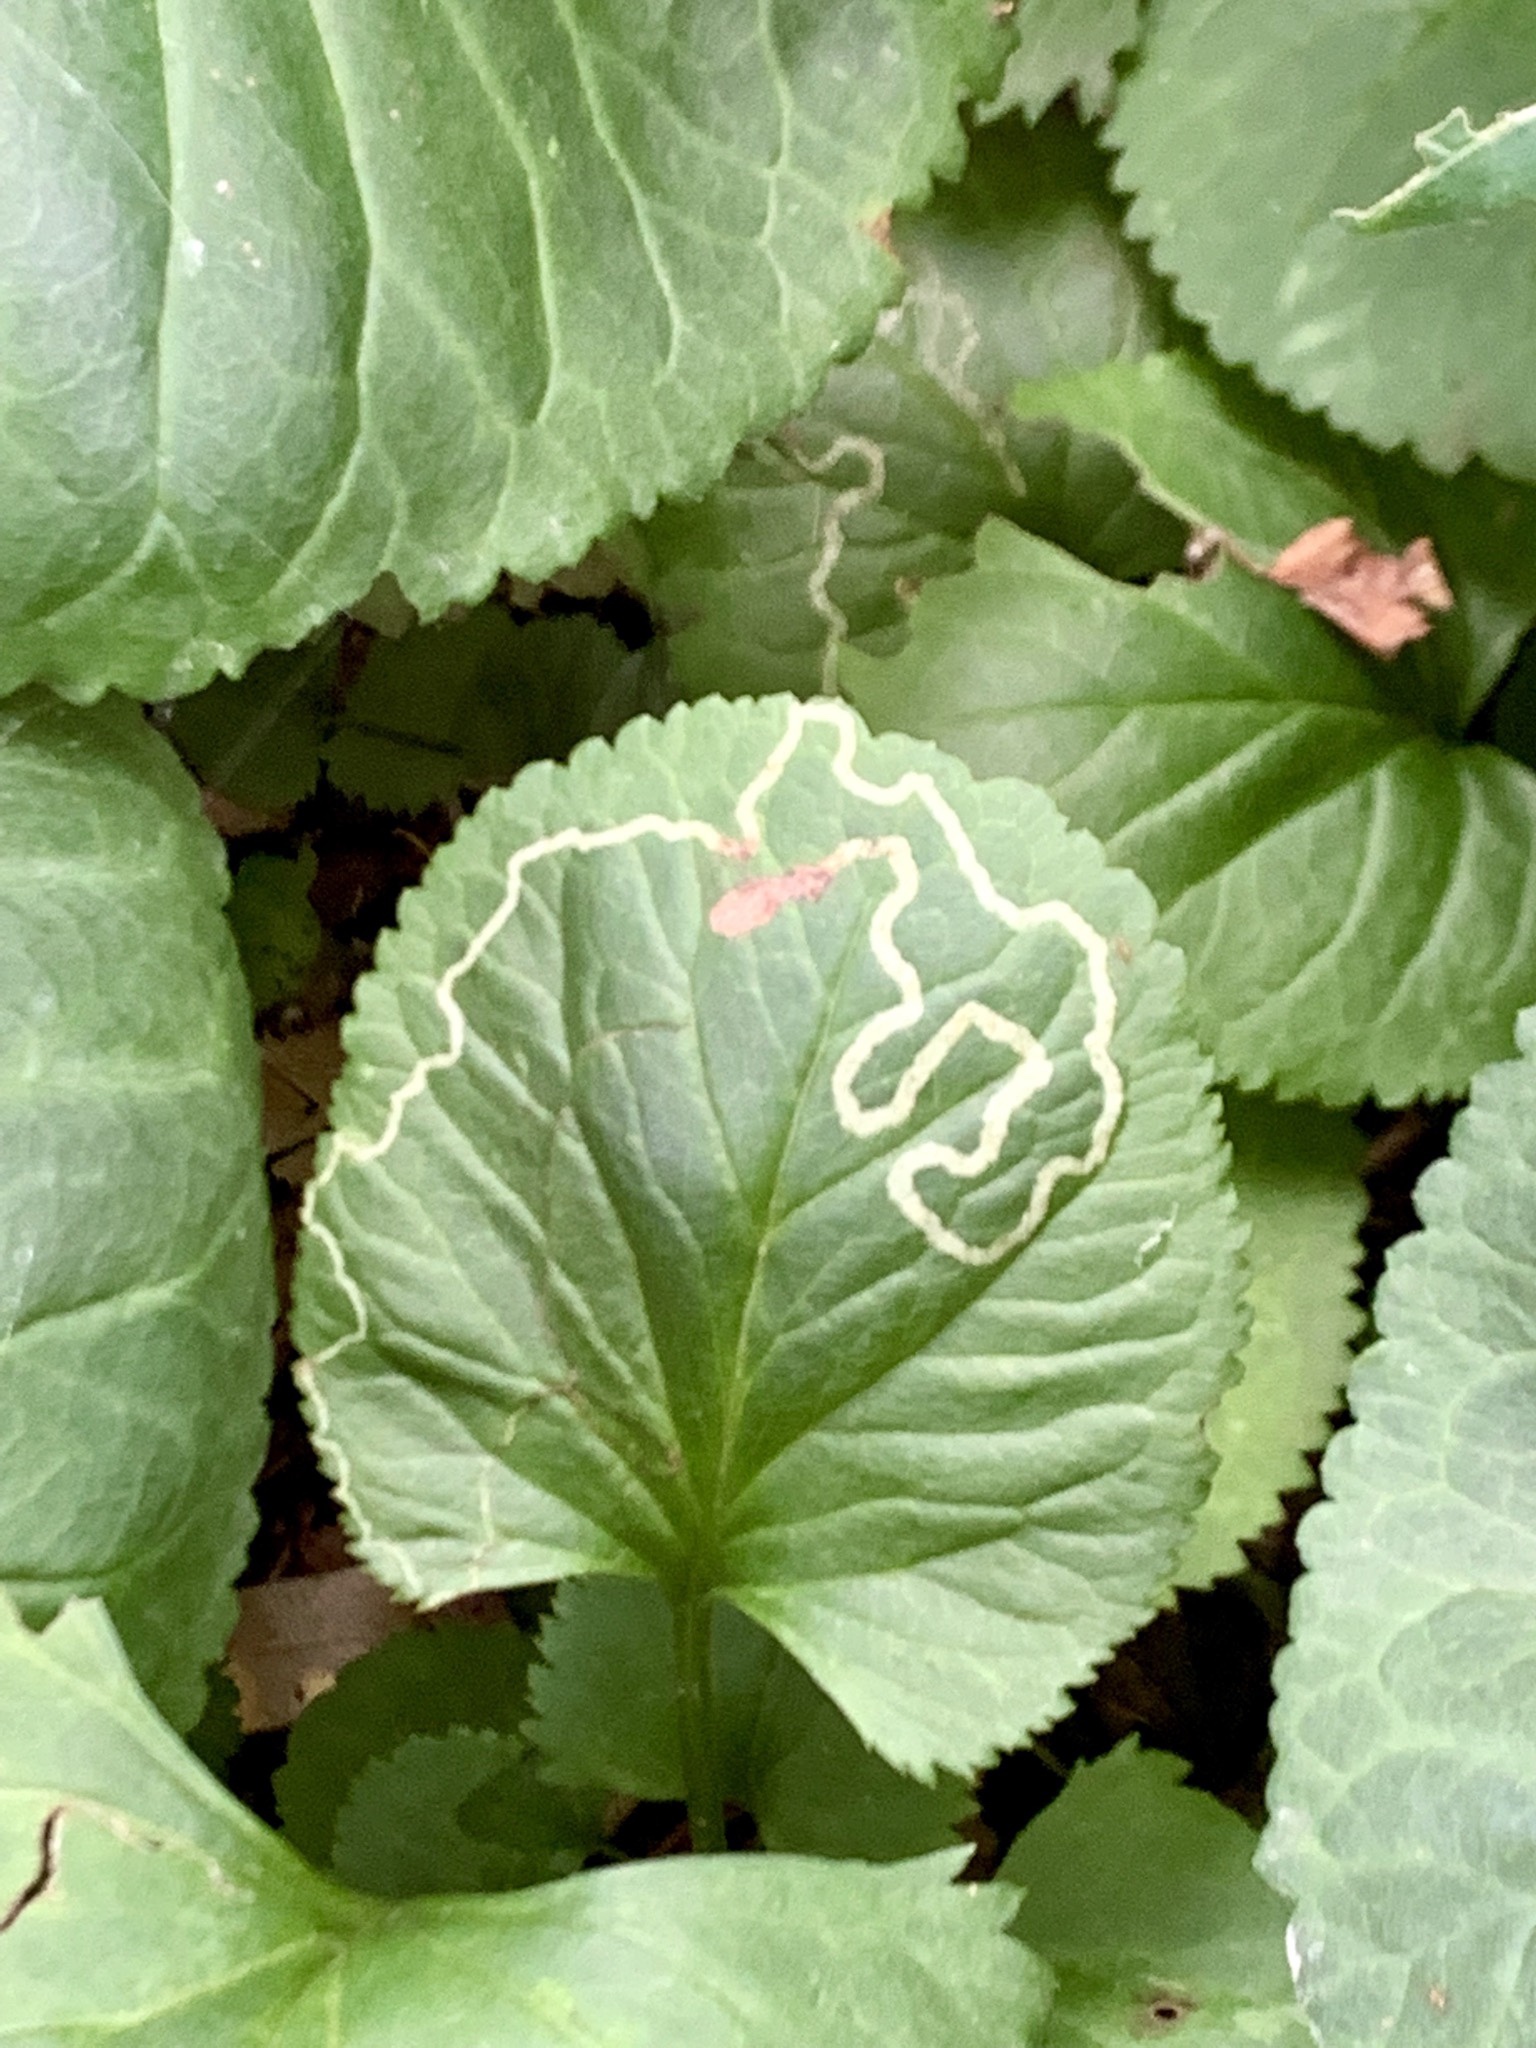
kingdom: Animalia
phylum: Arthropoda
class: Insecta
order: Lepidoptera
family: Gracillariidae
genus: Phyllocnistis
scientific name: Phyllocnistis insignis
